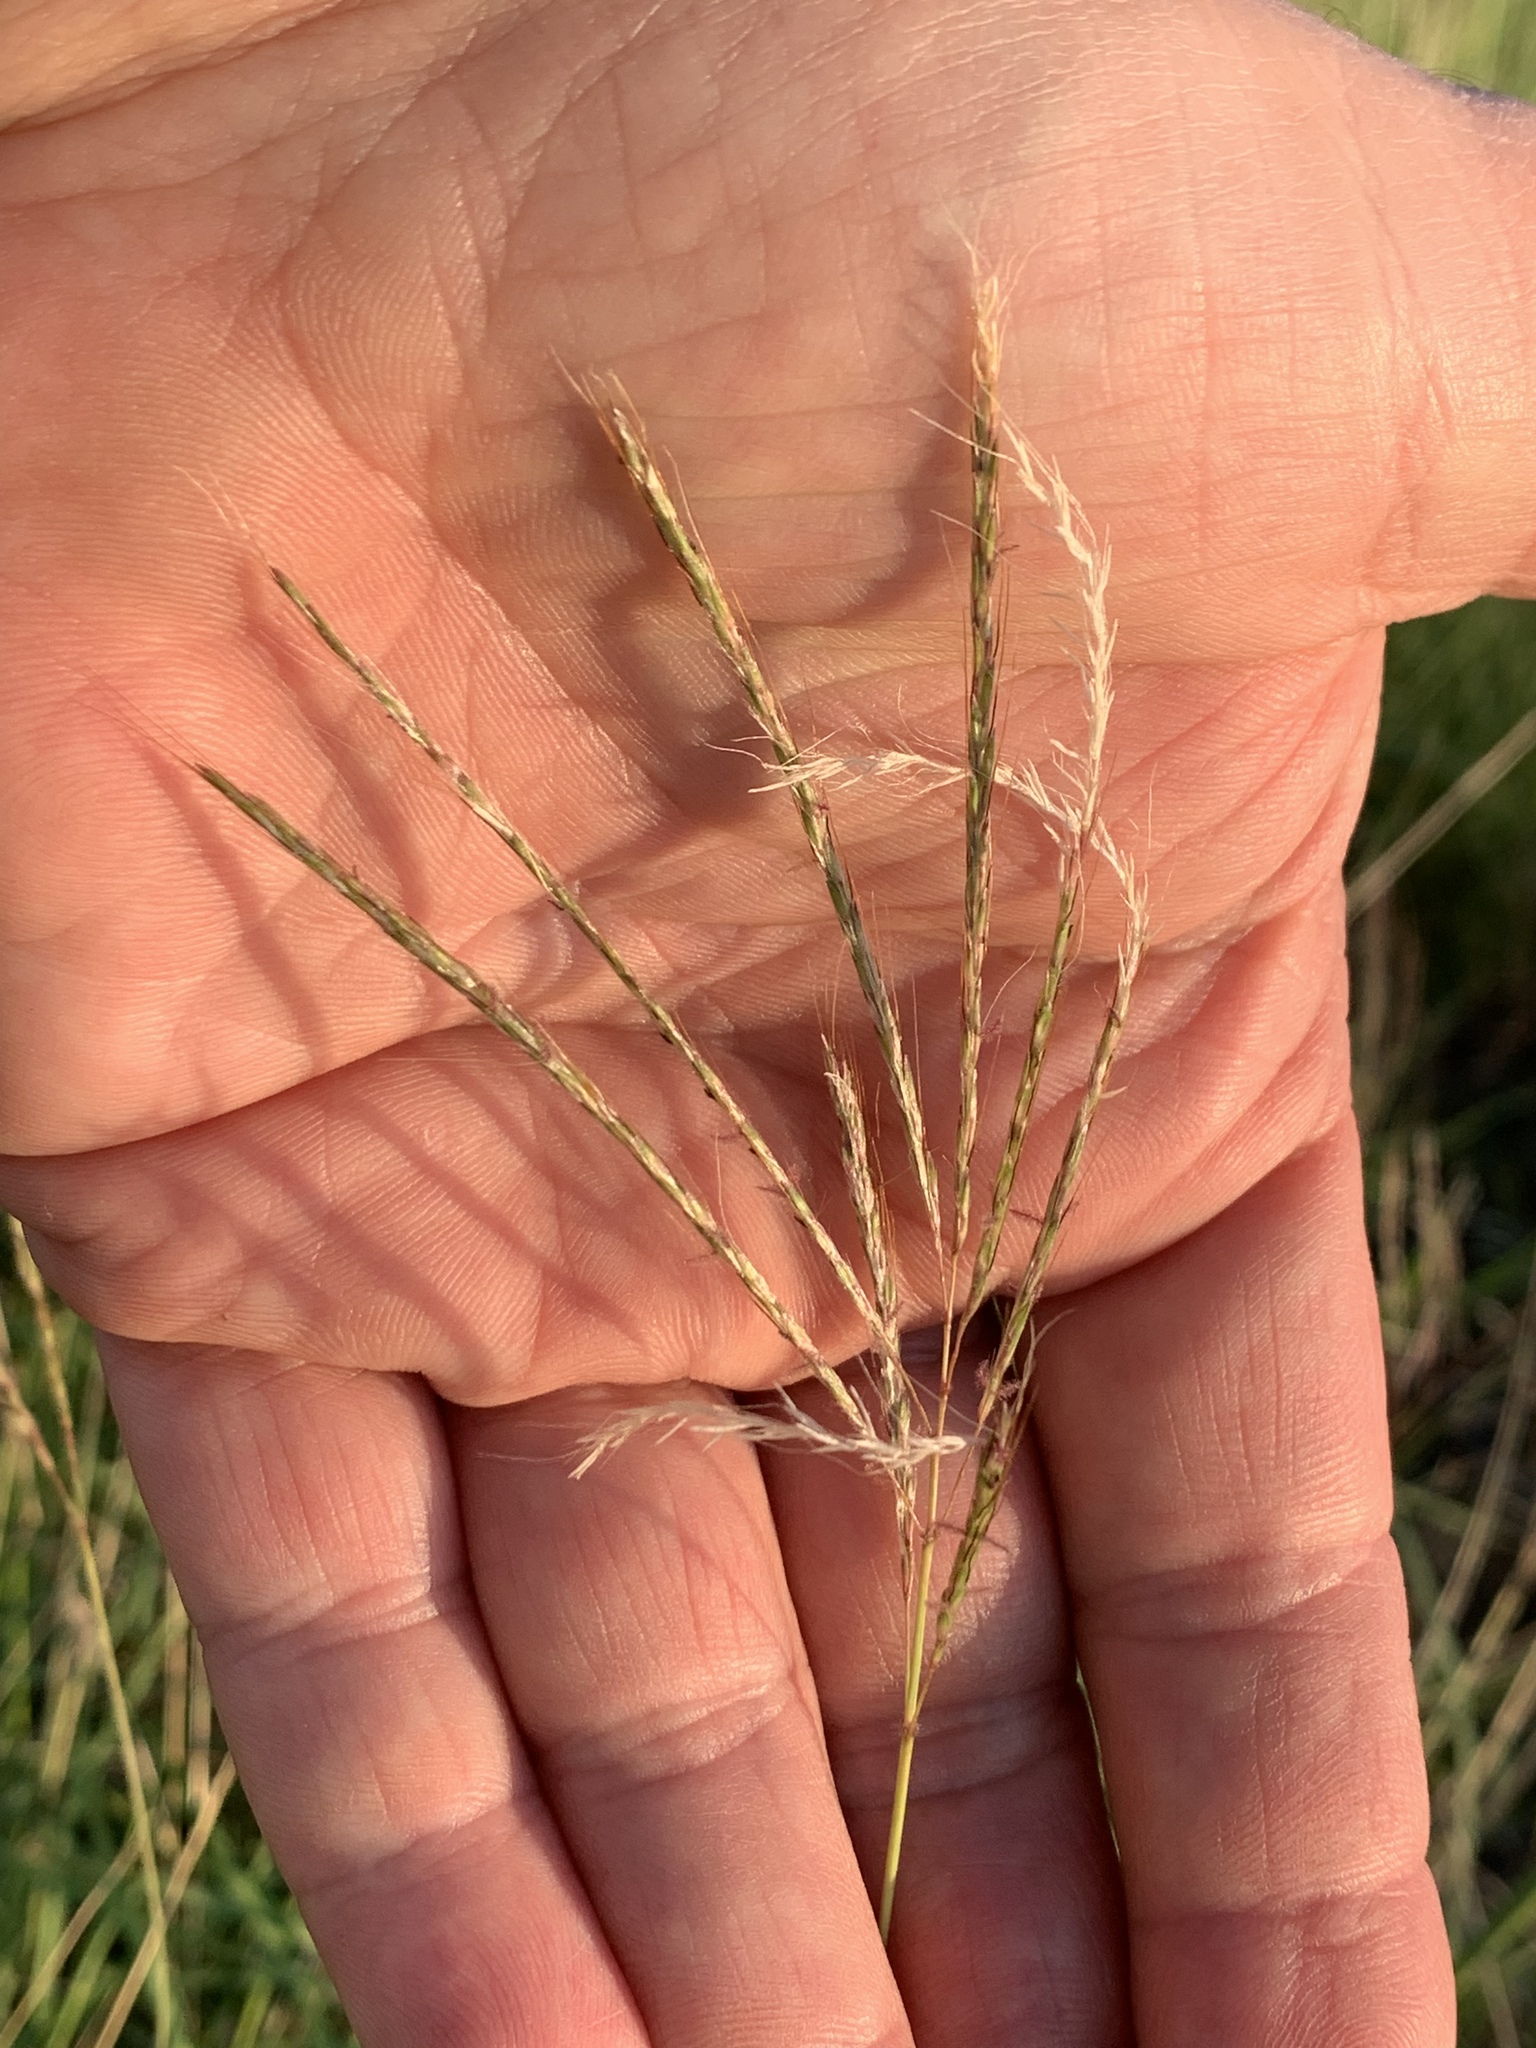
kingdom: Plantae
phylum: Tracheophyta
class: Liliopsida
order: Poales
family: Poaceae
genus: Bothriochloa
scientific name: Bothriochloa ischaemum
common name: Yellow bluestem
